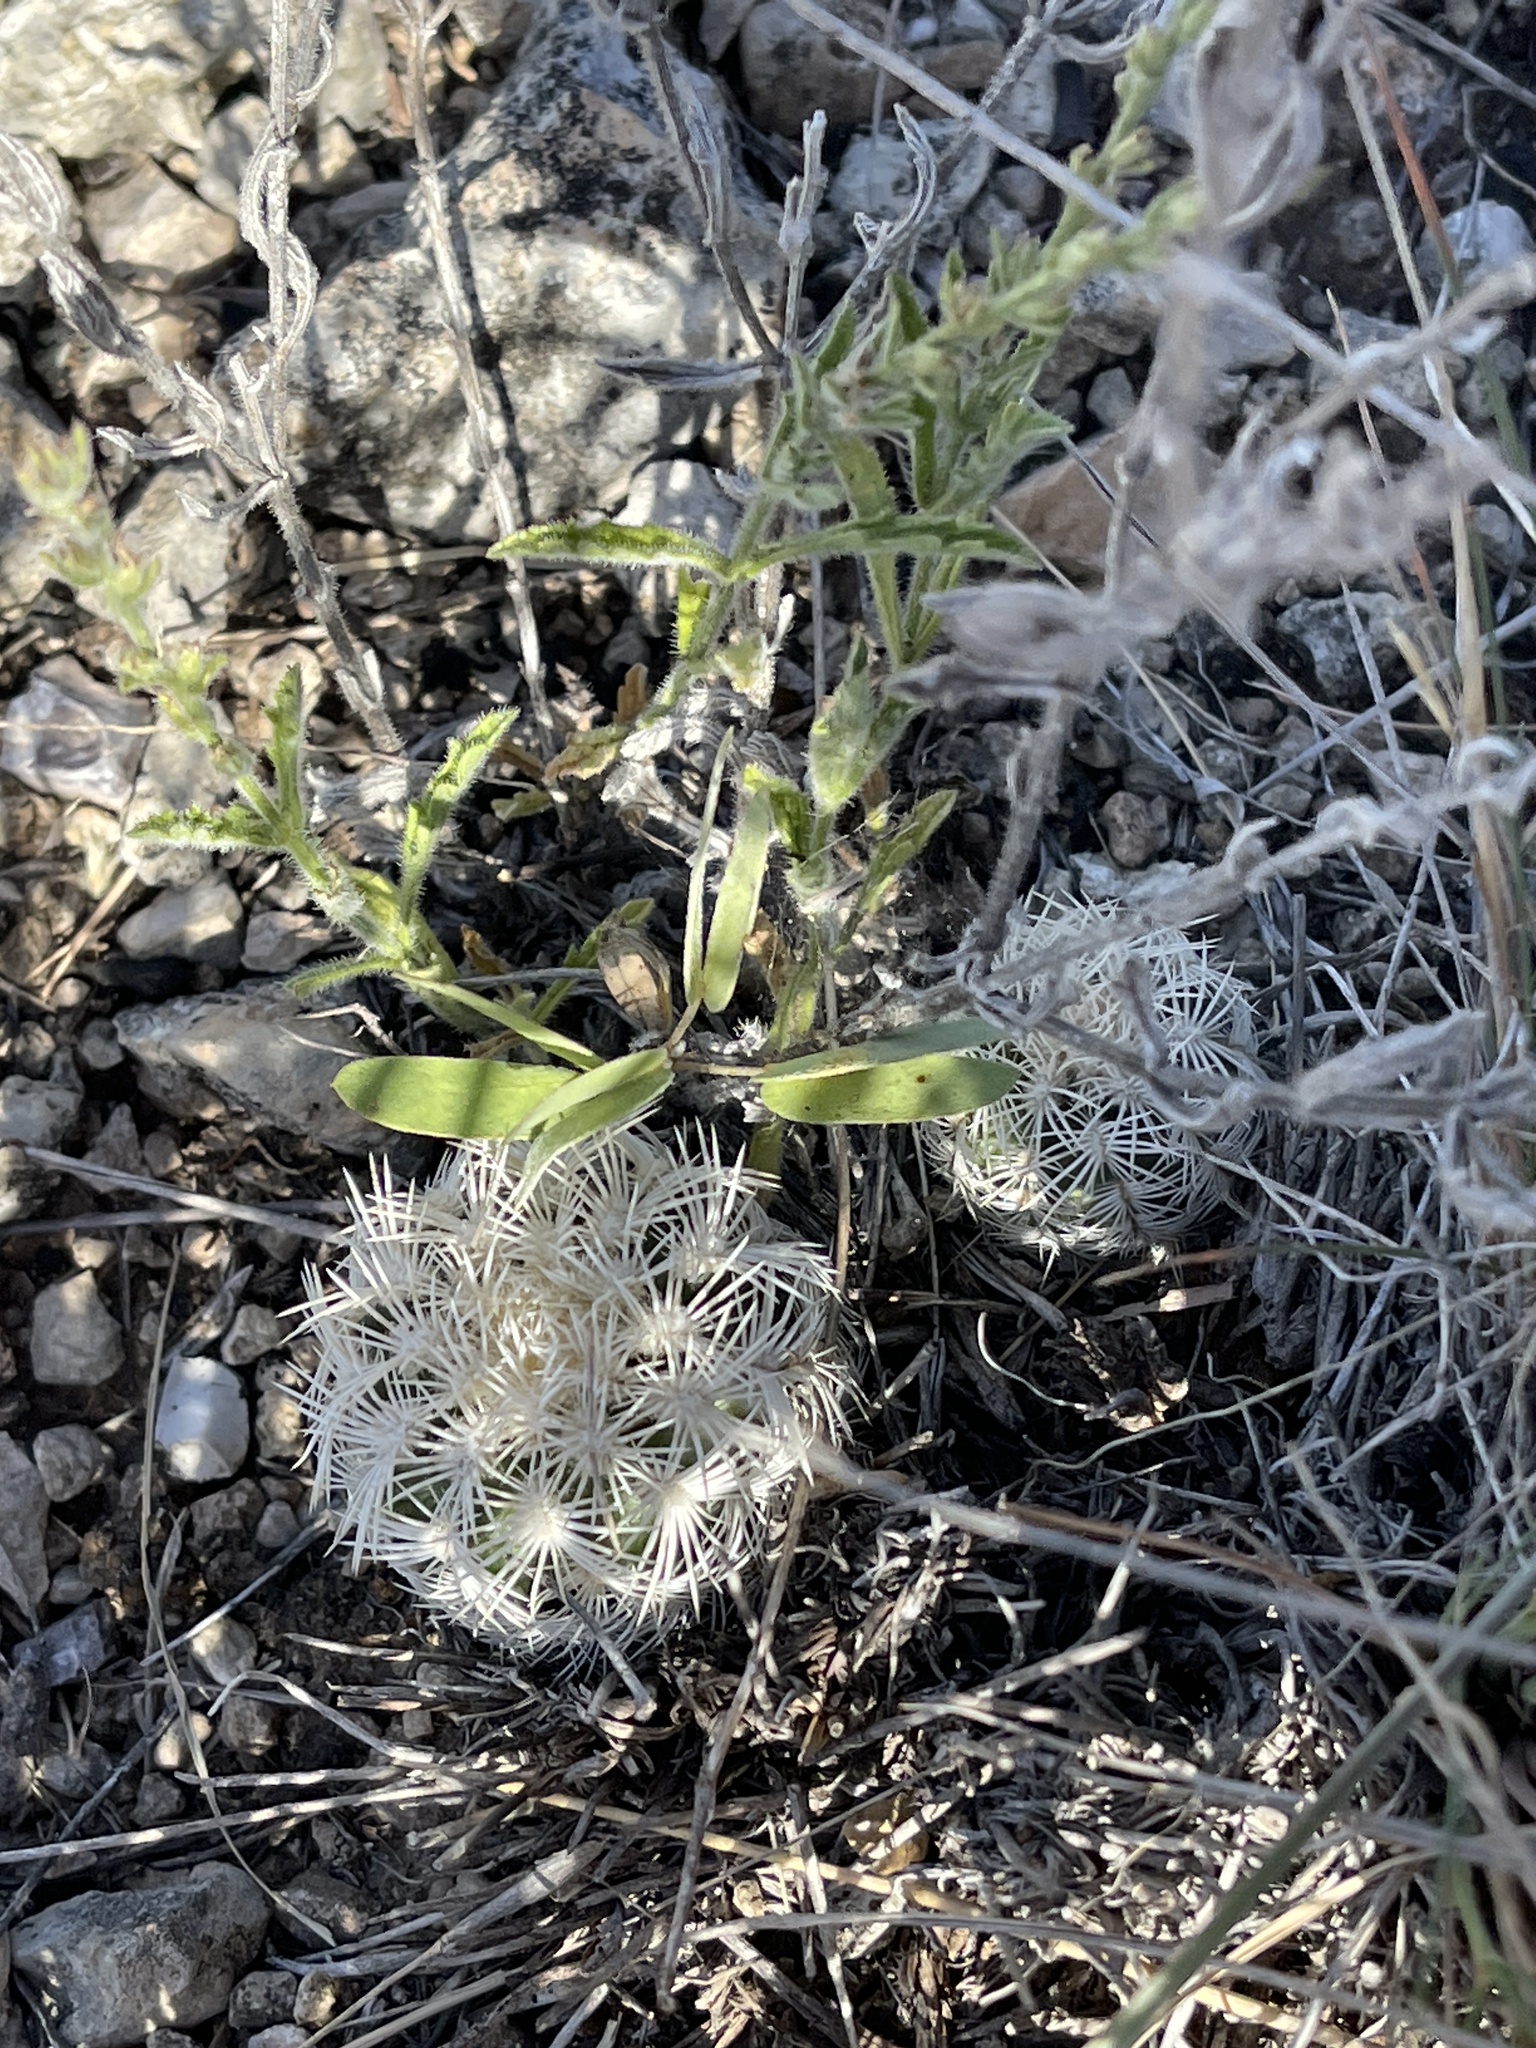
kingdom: Plantae
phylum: Tracheophyta
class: Magnoliopsida
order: Caryophyllales
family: Cactaceae
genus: Echinocereus
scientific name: Echinocereus reichenbachii
